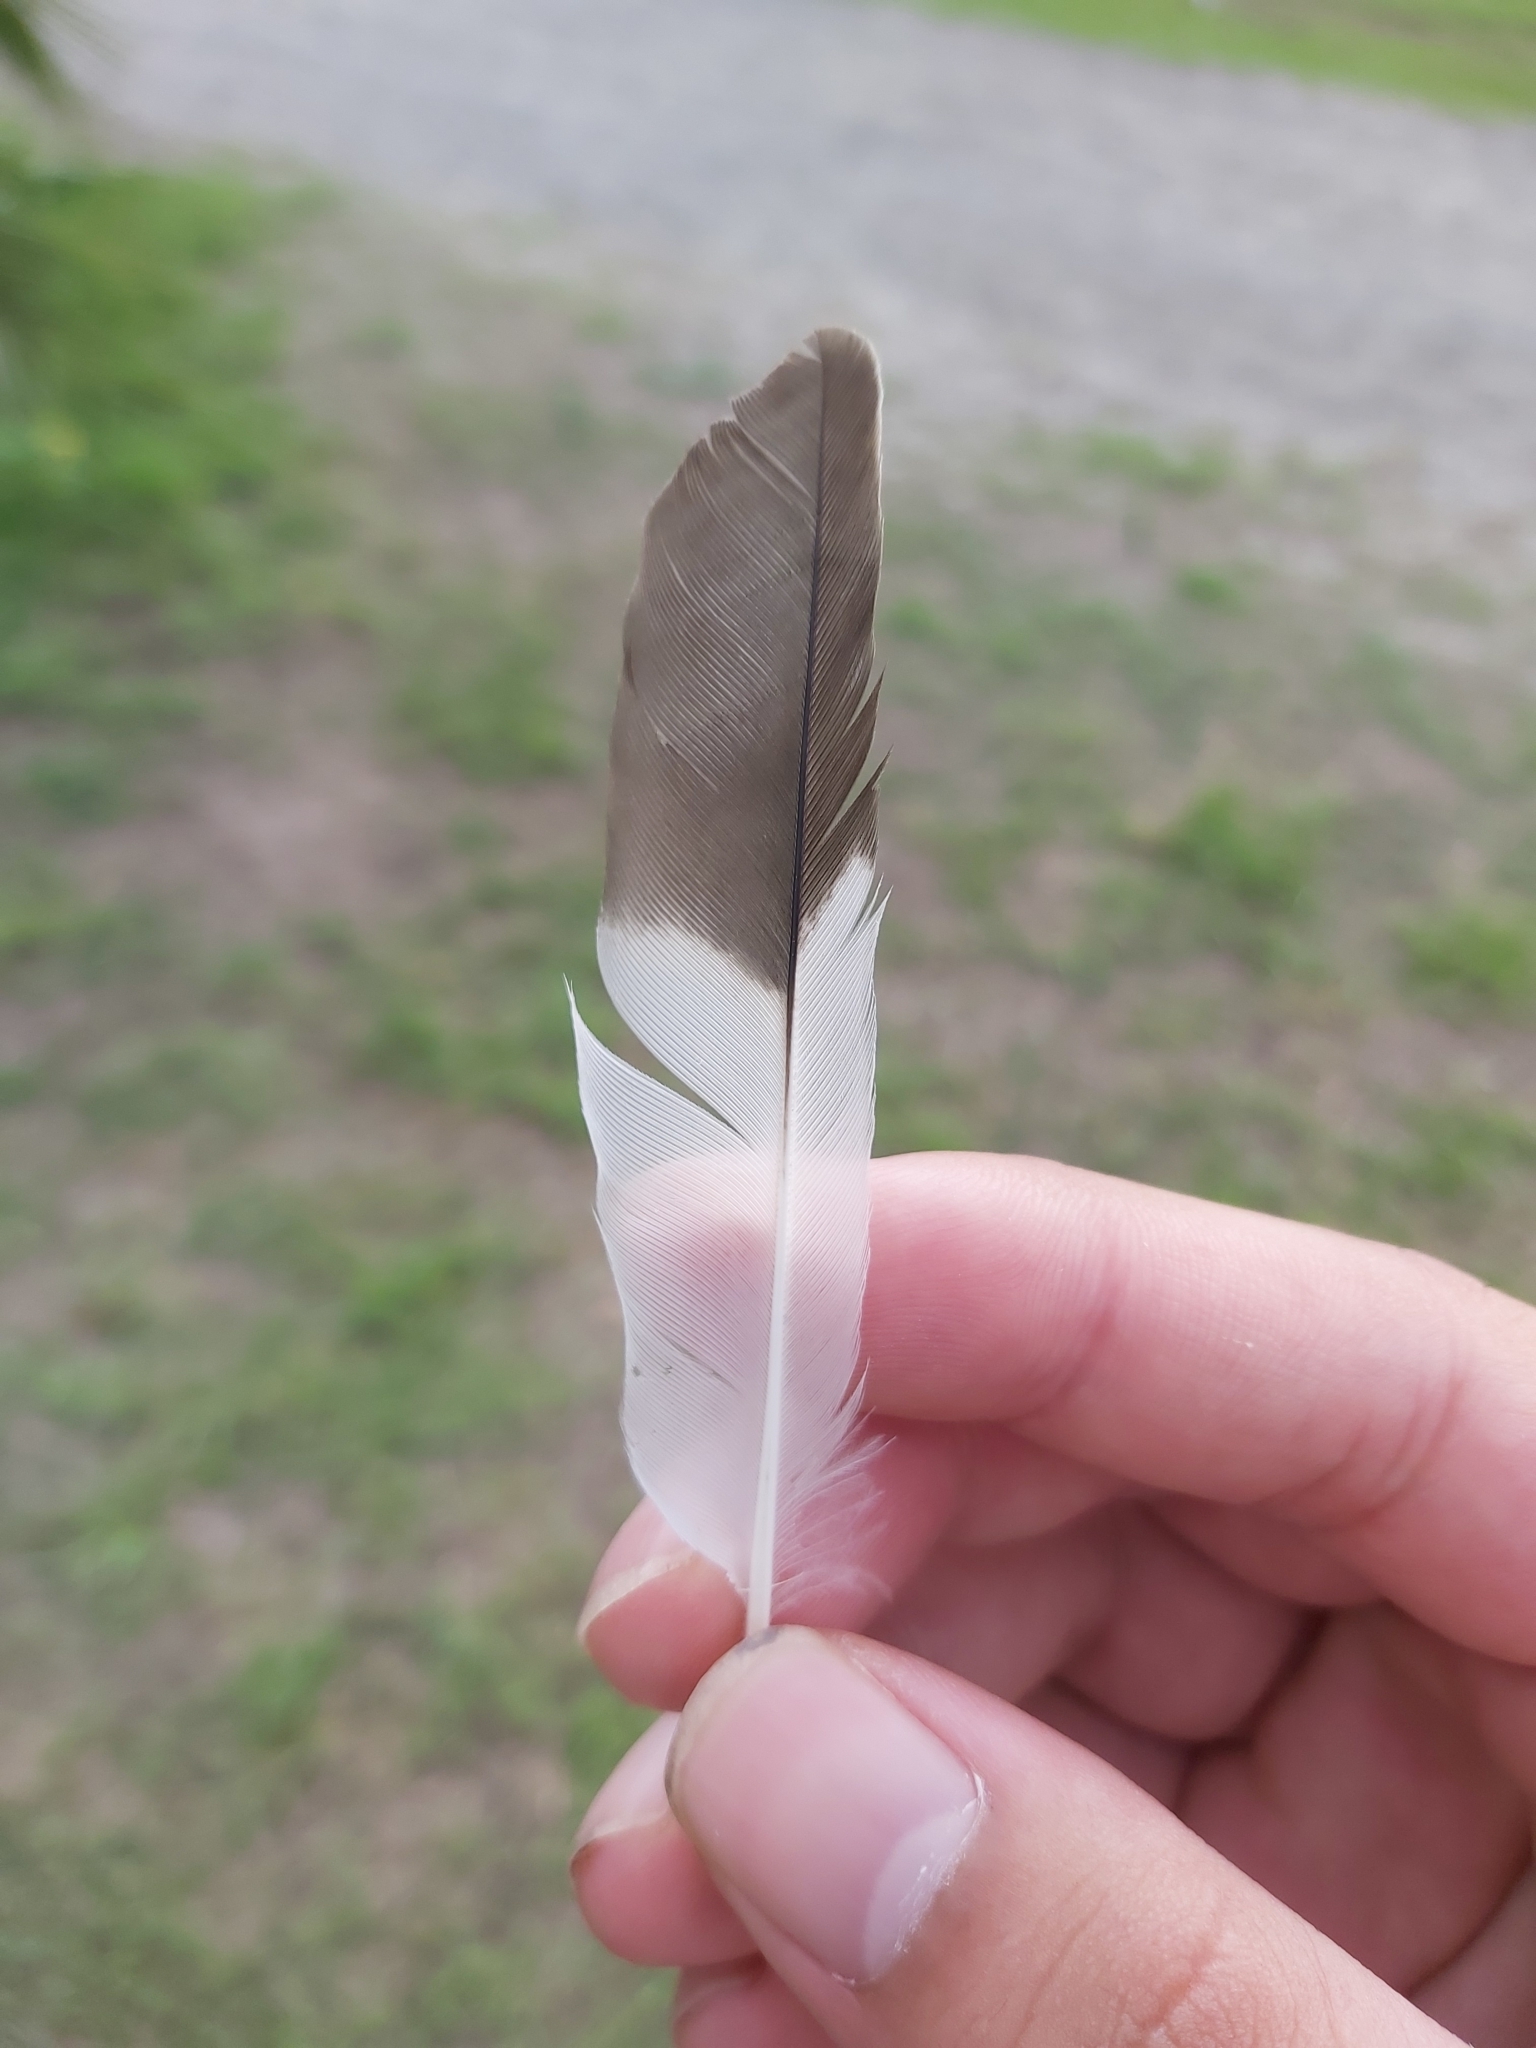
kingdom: Animalia
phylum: Chordata
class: Aves
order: Passeriformes
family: Sturnidae
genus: Acridotheres
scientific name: Acridotheres tristis
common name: Common myna
